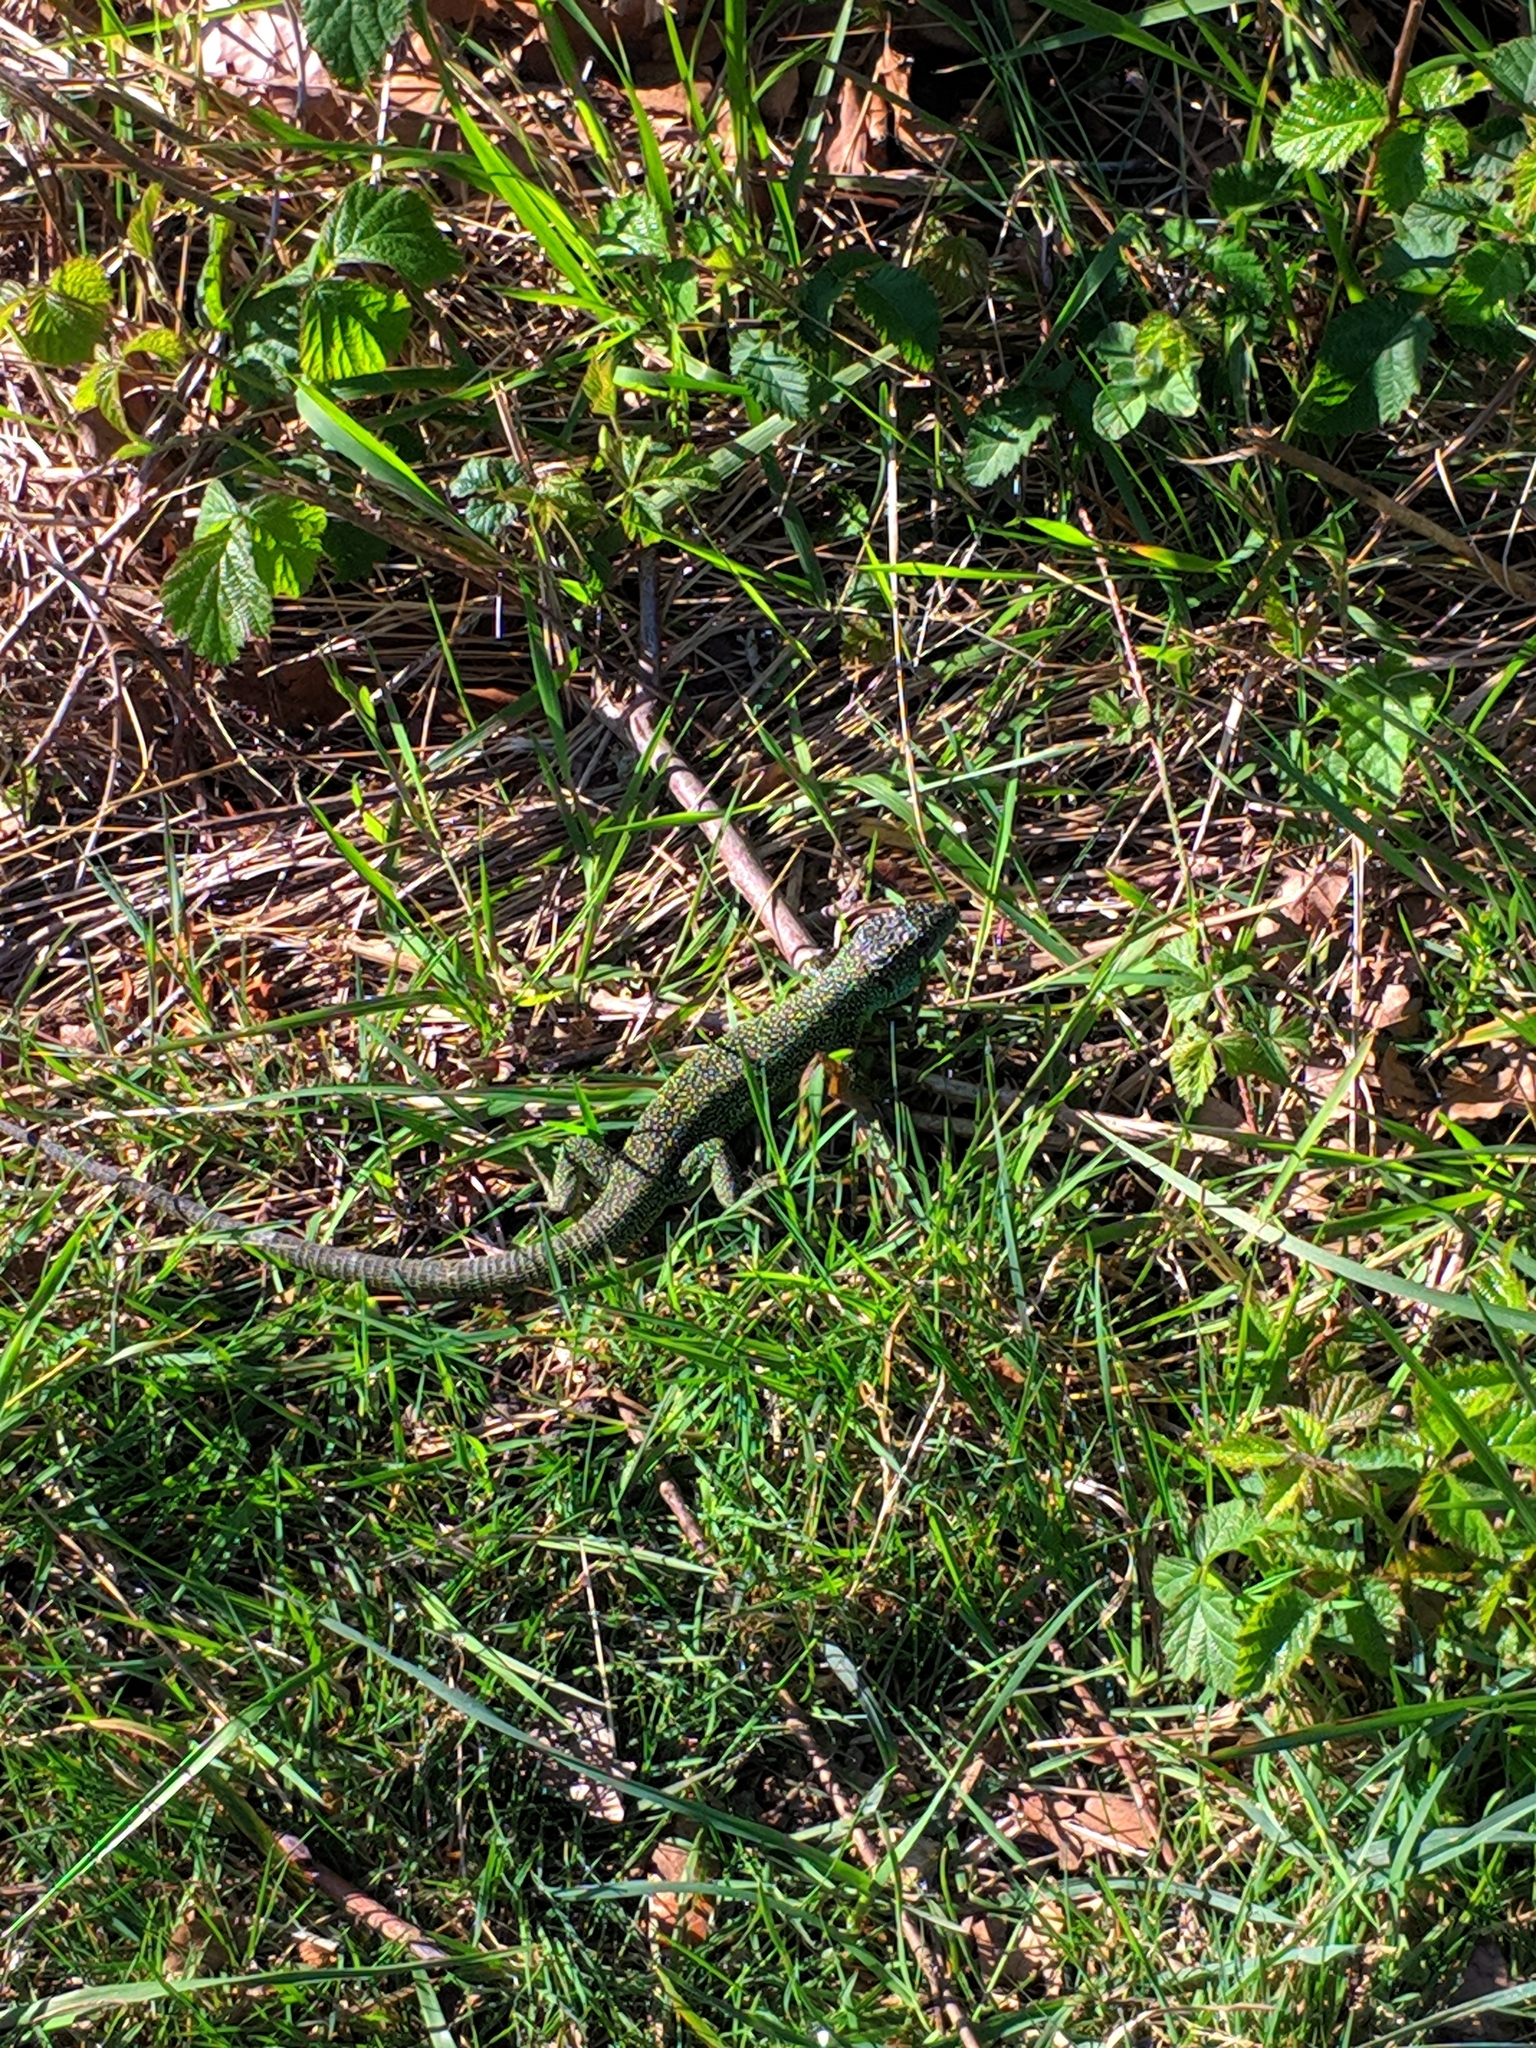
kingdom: Animalia
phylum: Chordata
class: Squamata
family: Lacertidae
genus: Lacerta
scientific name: Lacerta bilineata
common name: Western green lizard
